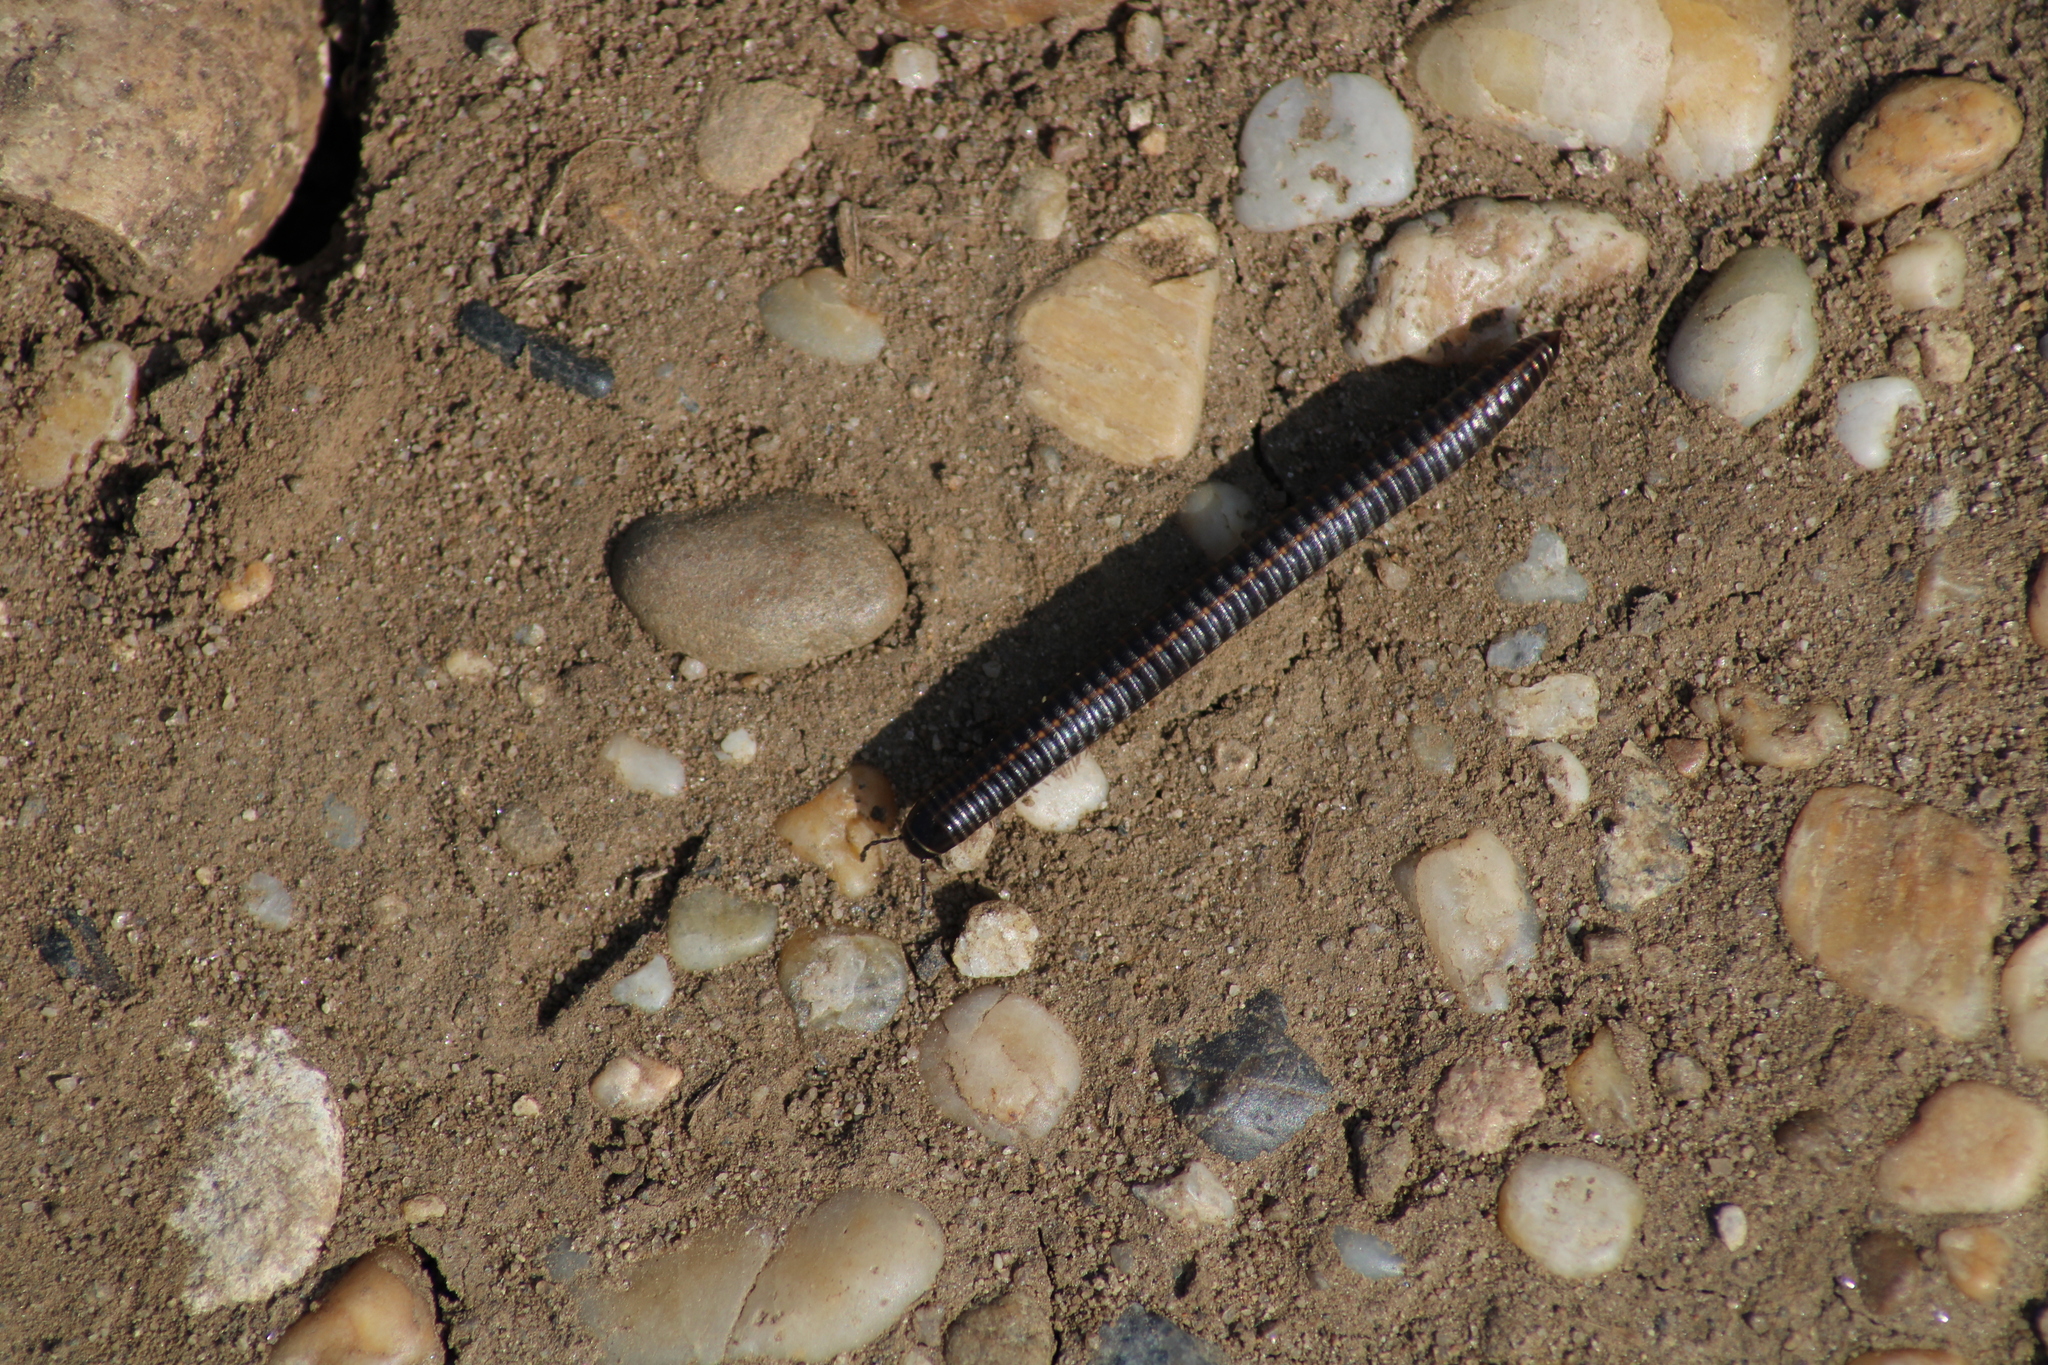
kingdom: Animalia
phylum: Arthropoda
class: Diplopoda
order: Julida
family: Julidae
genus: Ommatoiulus
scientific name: Ommatoiulus sabulosus
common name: Striped millipede
